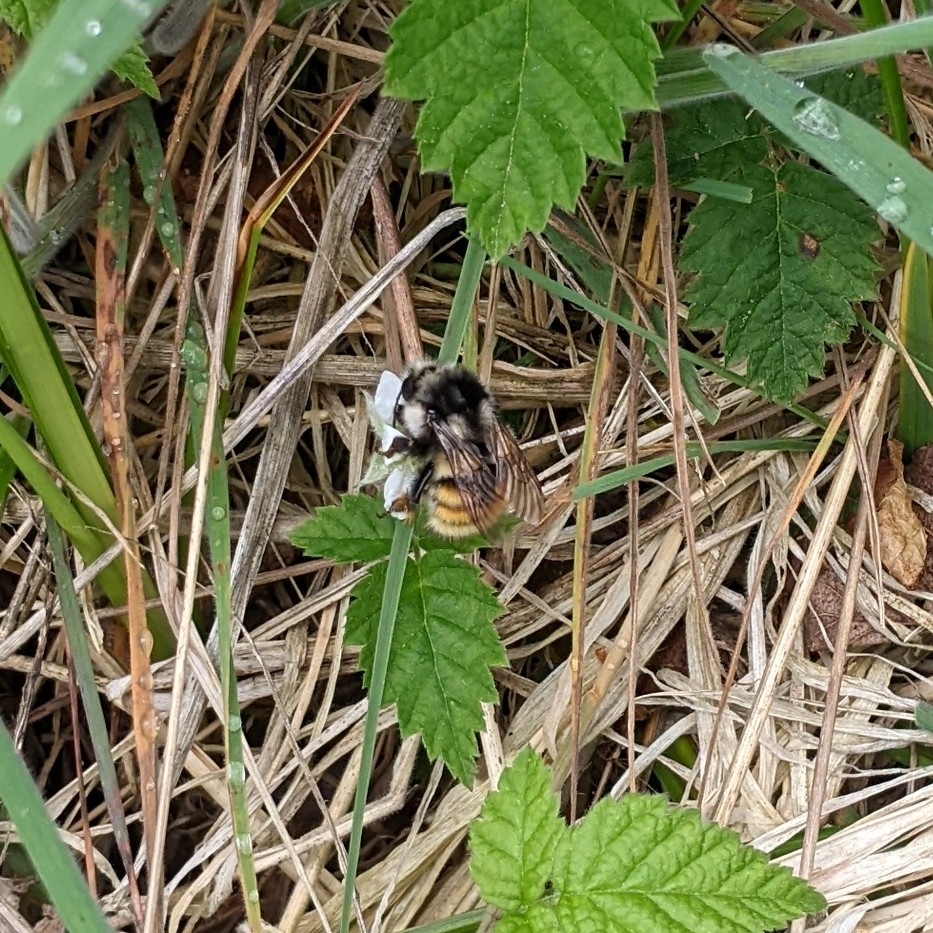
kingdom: Animalia
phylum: Arthropoda
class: Insecta
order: Hymenoptera
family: Apidae
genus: Bombus
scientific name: Bombus vancouverensis
